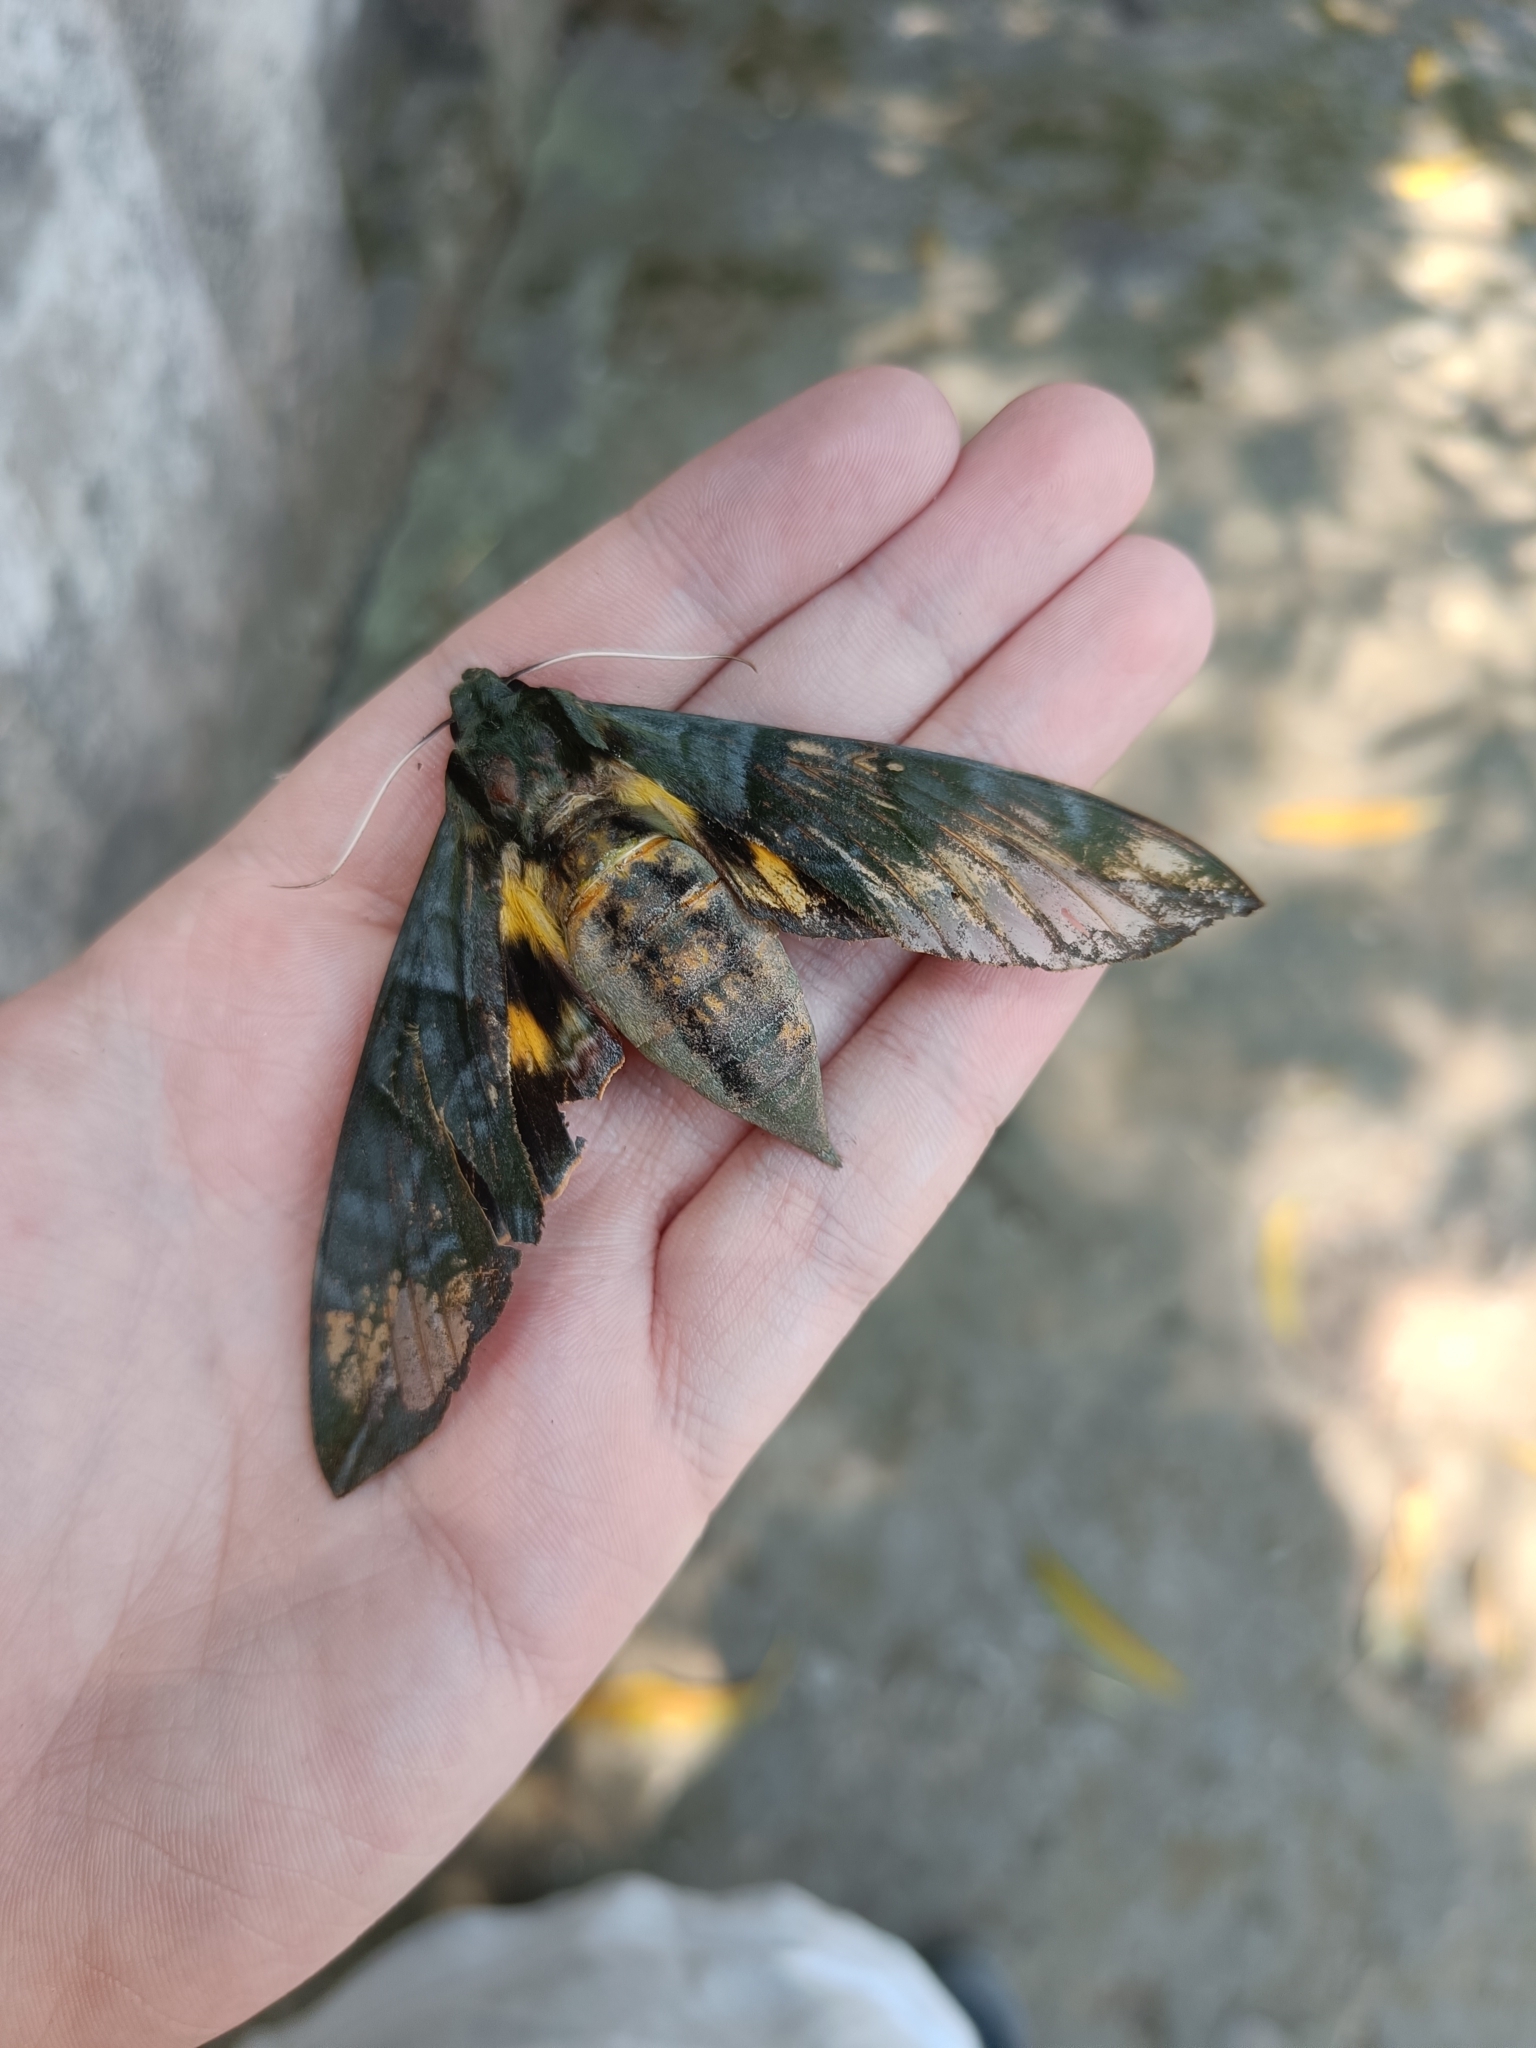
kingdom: Animalia
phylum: Arthropoda
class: Insecta
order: Lepidoptera
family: Sphingidae
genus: Eumorpha
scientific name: Eumorpha phorbas
